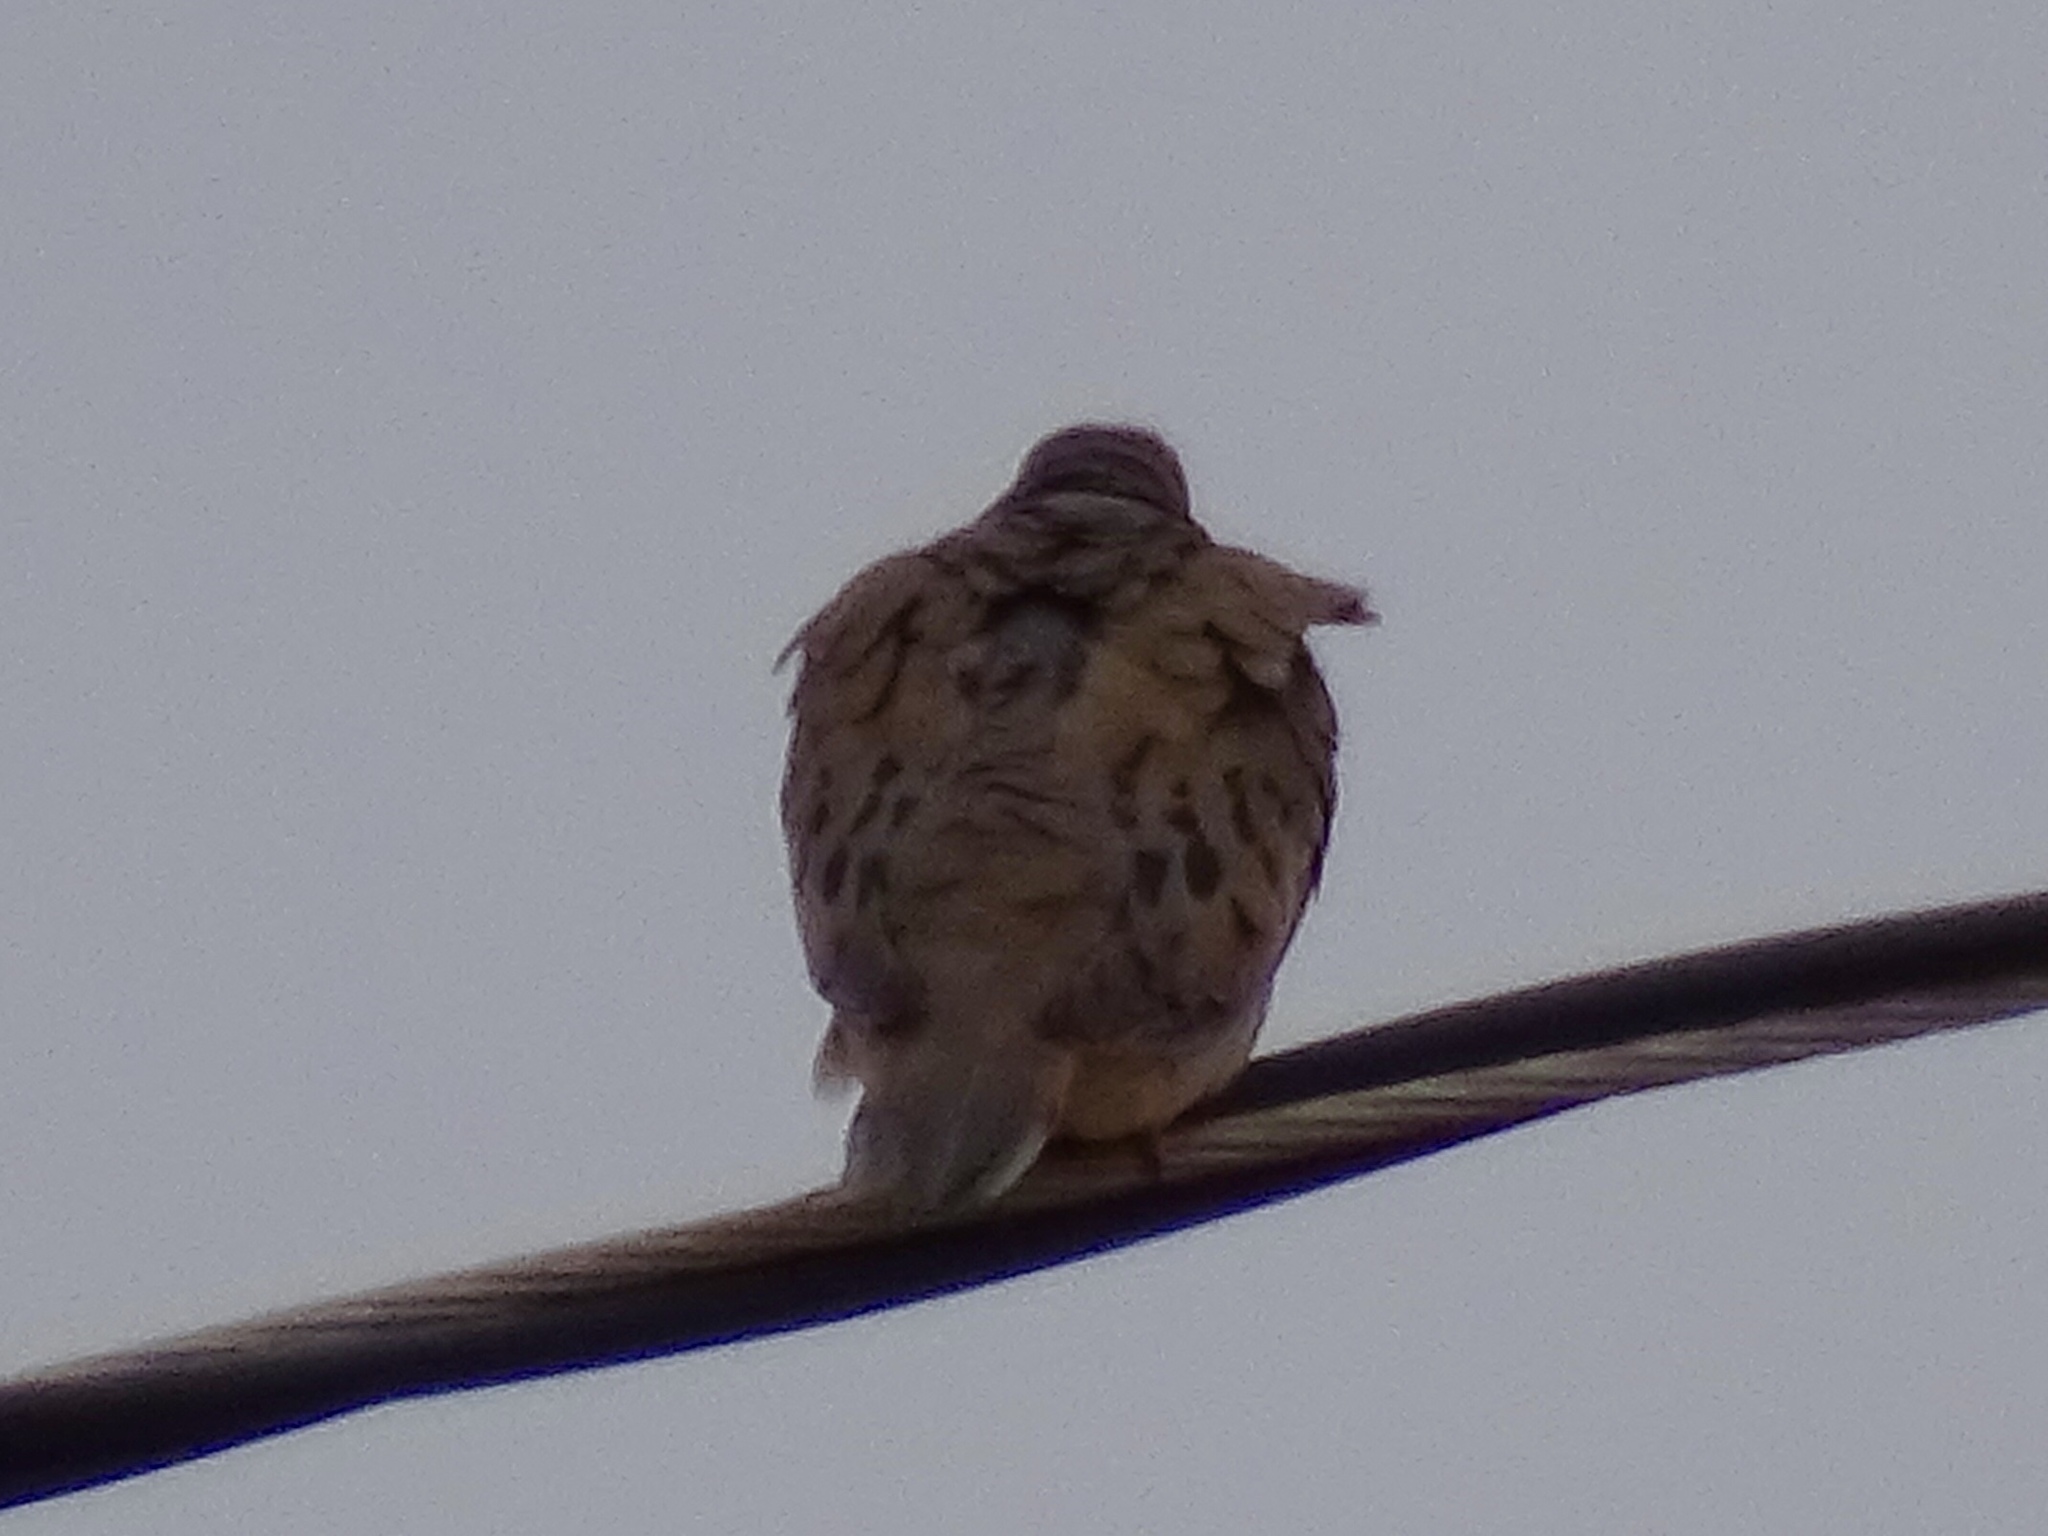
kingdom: Animalia
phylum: Chordata
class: Aves
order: Columbiformes
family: Columbidae
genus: Zenaida
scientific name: Zenaida macroura
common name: Mourning dove
